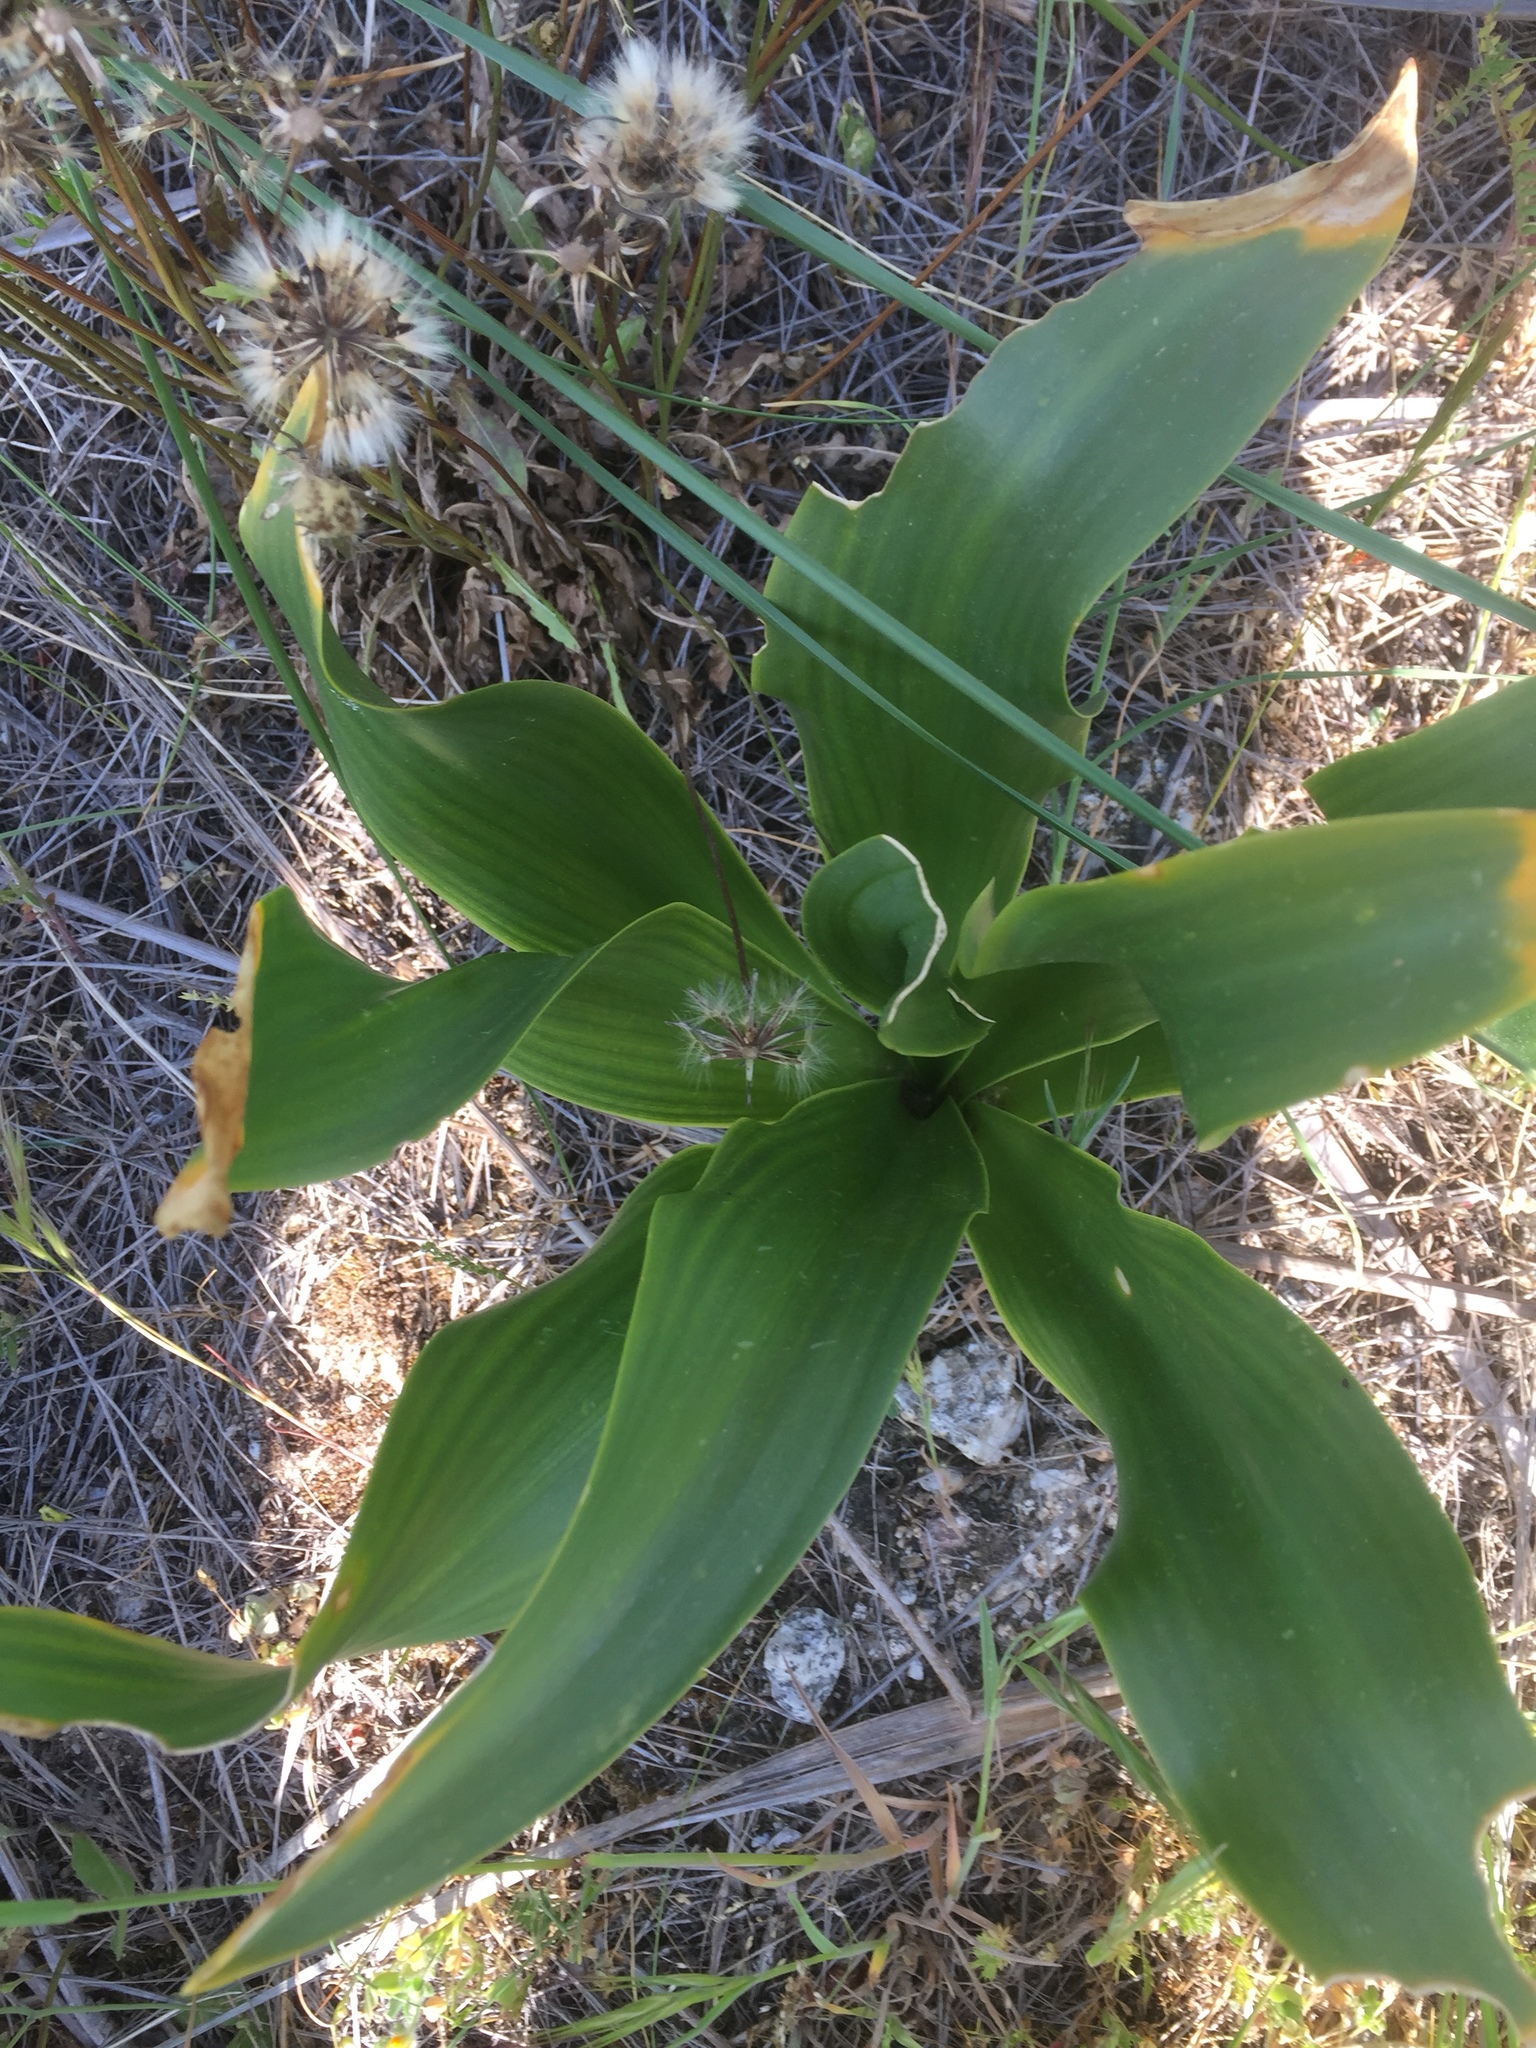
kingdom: Plantae
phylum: Tracheophyta
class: Liliopsida
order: Asparagales
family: Asparagaceae
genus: Drimia
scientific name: Drimia maritima
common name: Maritime squill
